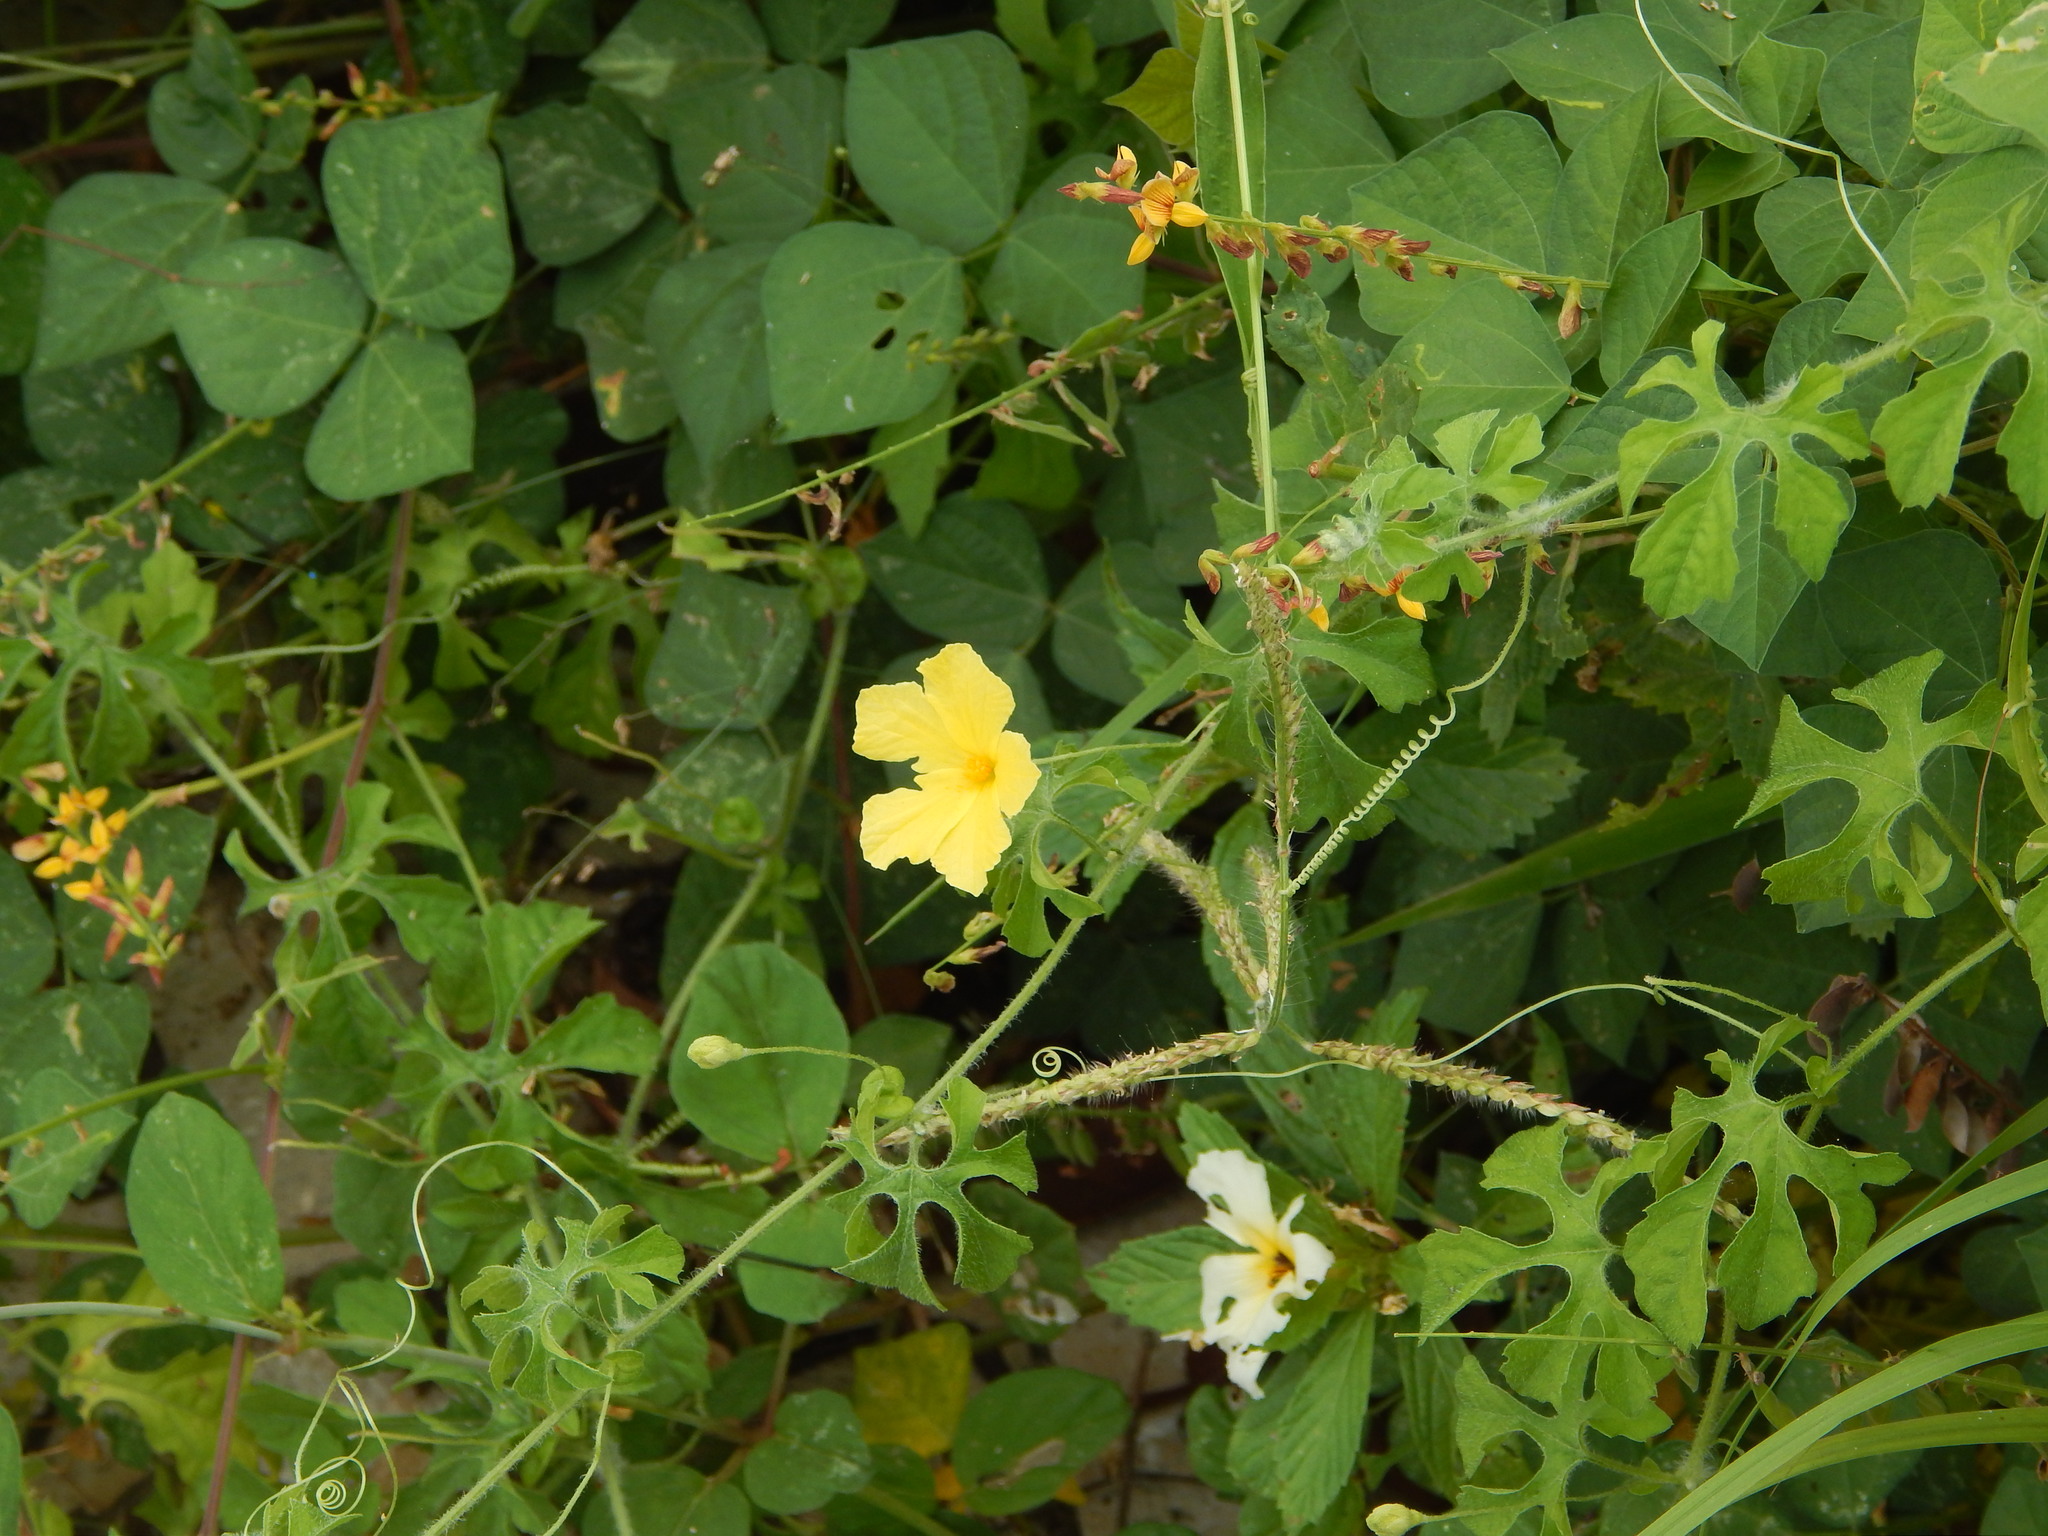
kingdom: Plantae
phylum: Tracheophyta
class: Magnoliopsida
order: Cucurbitales
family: Cucurbitaceae
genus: Momordica
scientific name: Momordica charantia
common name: Balsampear
